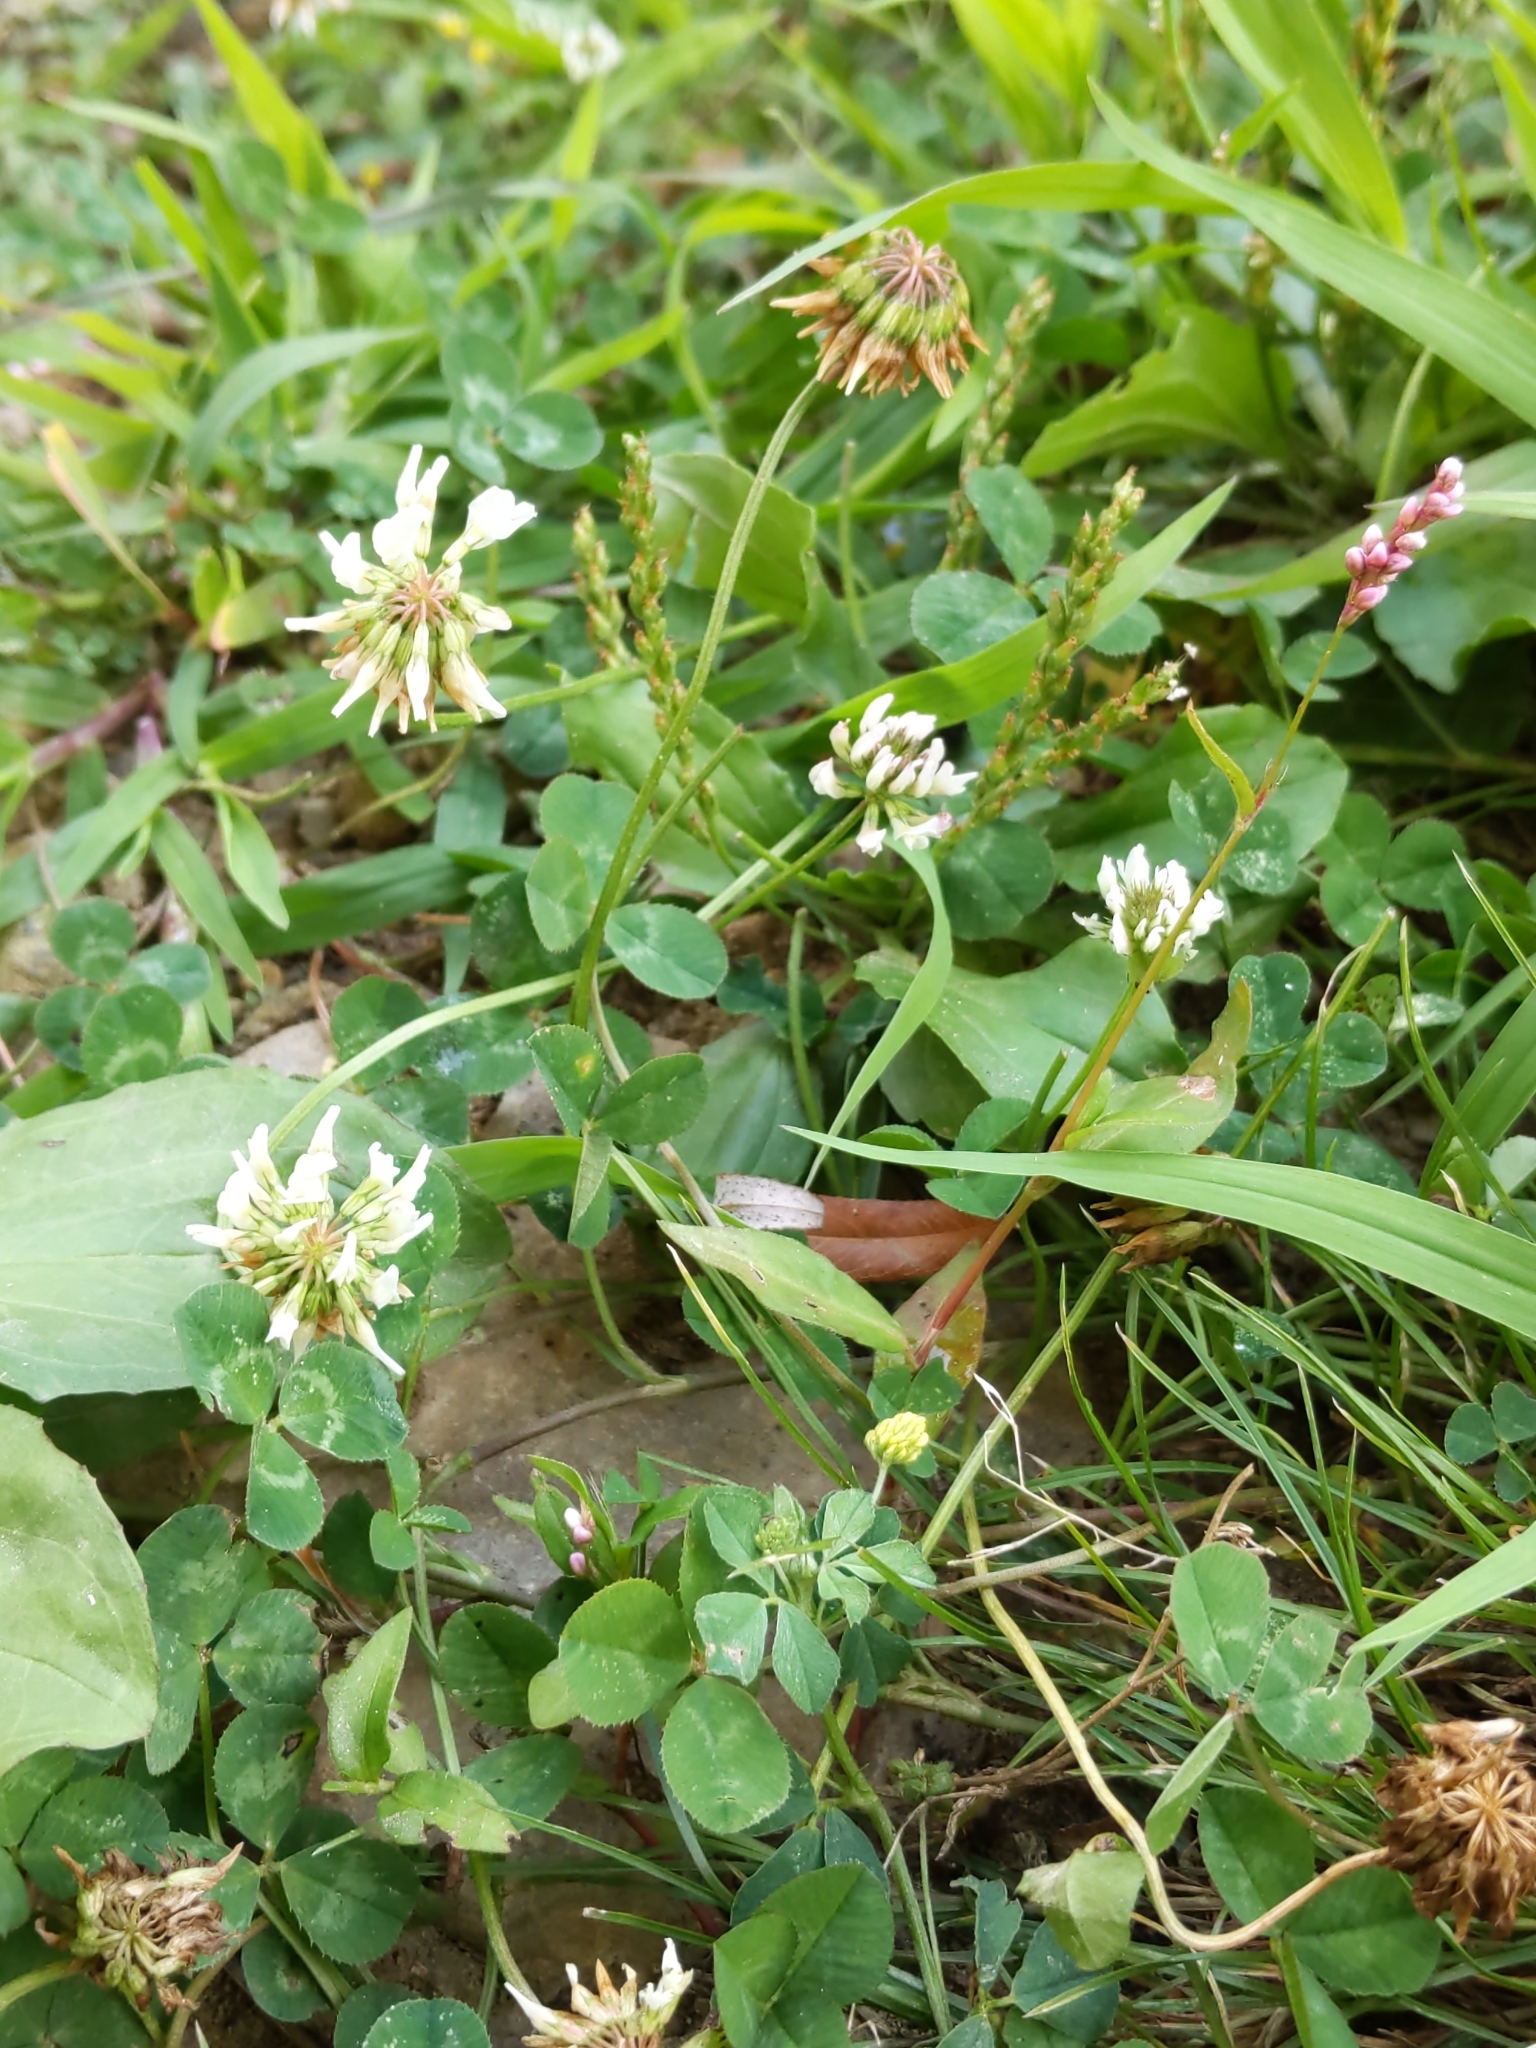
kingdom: Plantae
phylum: Tracheophyta
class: Magnoliopsida
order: Fabales
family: Fabaceae
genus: Trifolium
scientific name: Trifolium repens
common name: White clover
